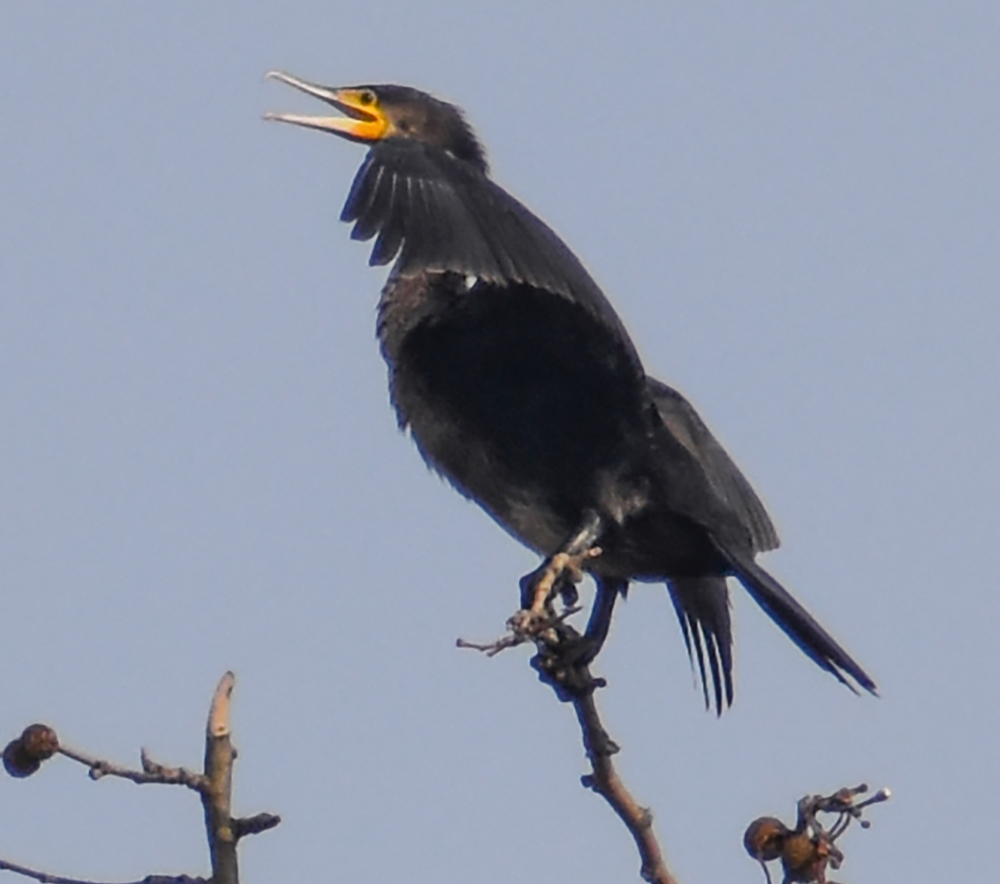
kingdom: Animalia
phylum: Chordata
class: Aves
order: Suliformes
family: Phalacrocoracidae
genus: Phalacrocorax
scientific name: Phalacrocorax carbo
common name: Great cormorant
